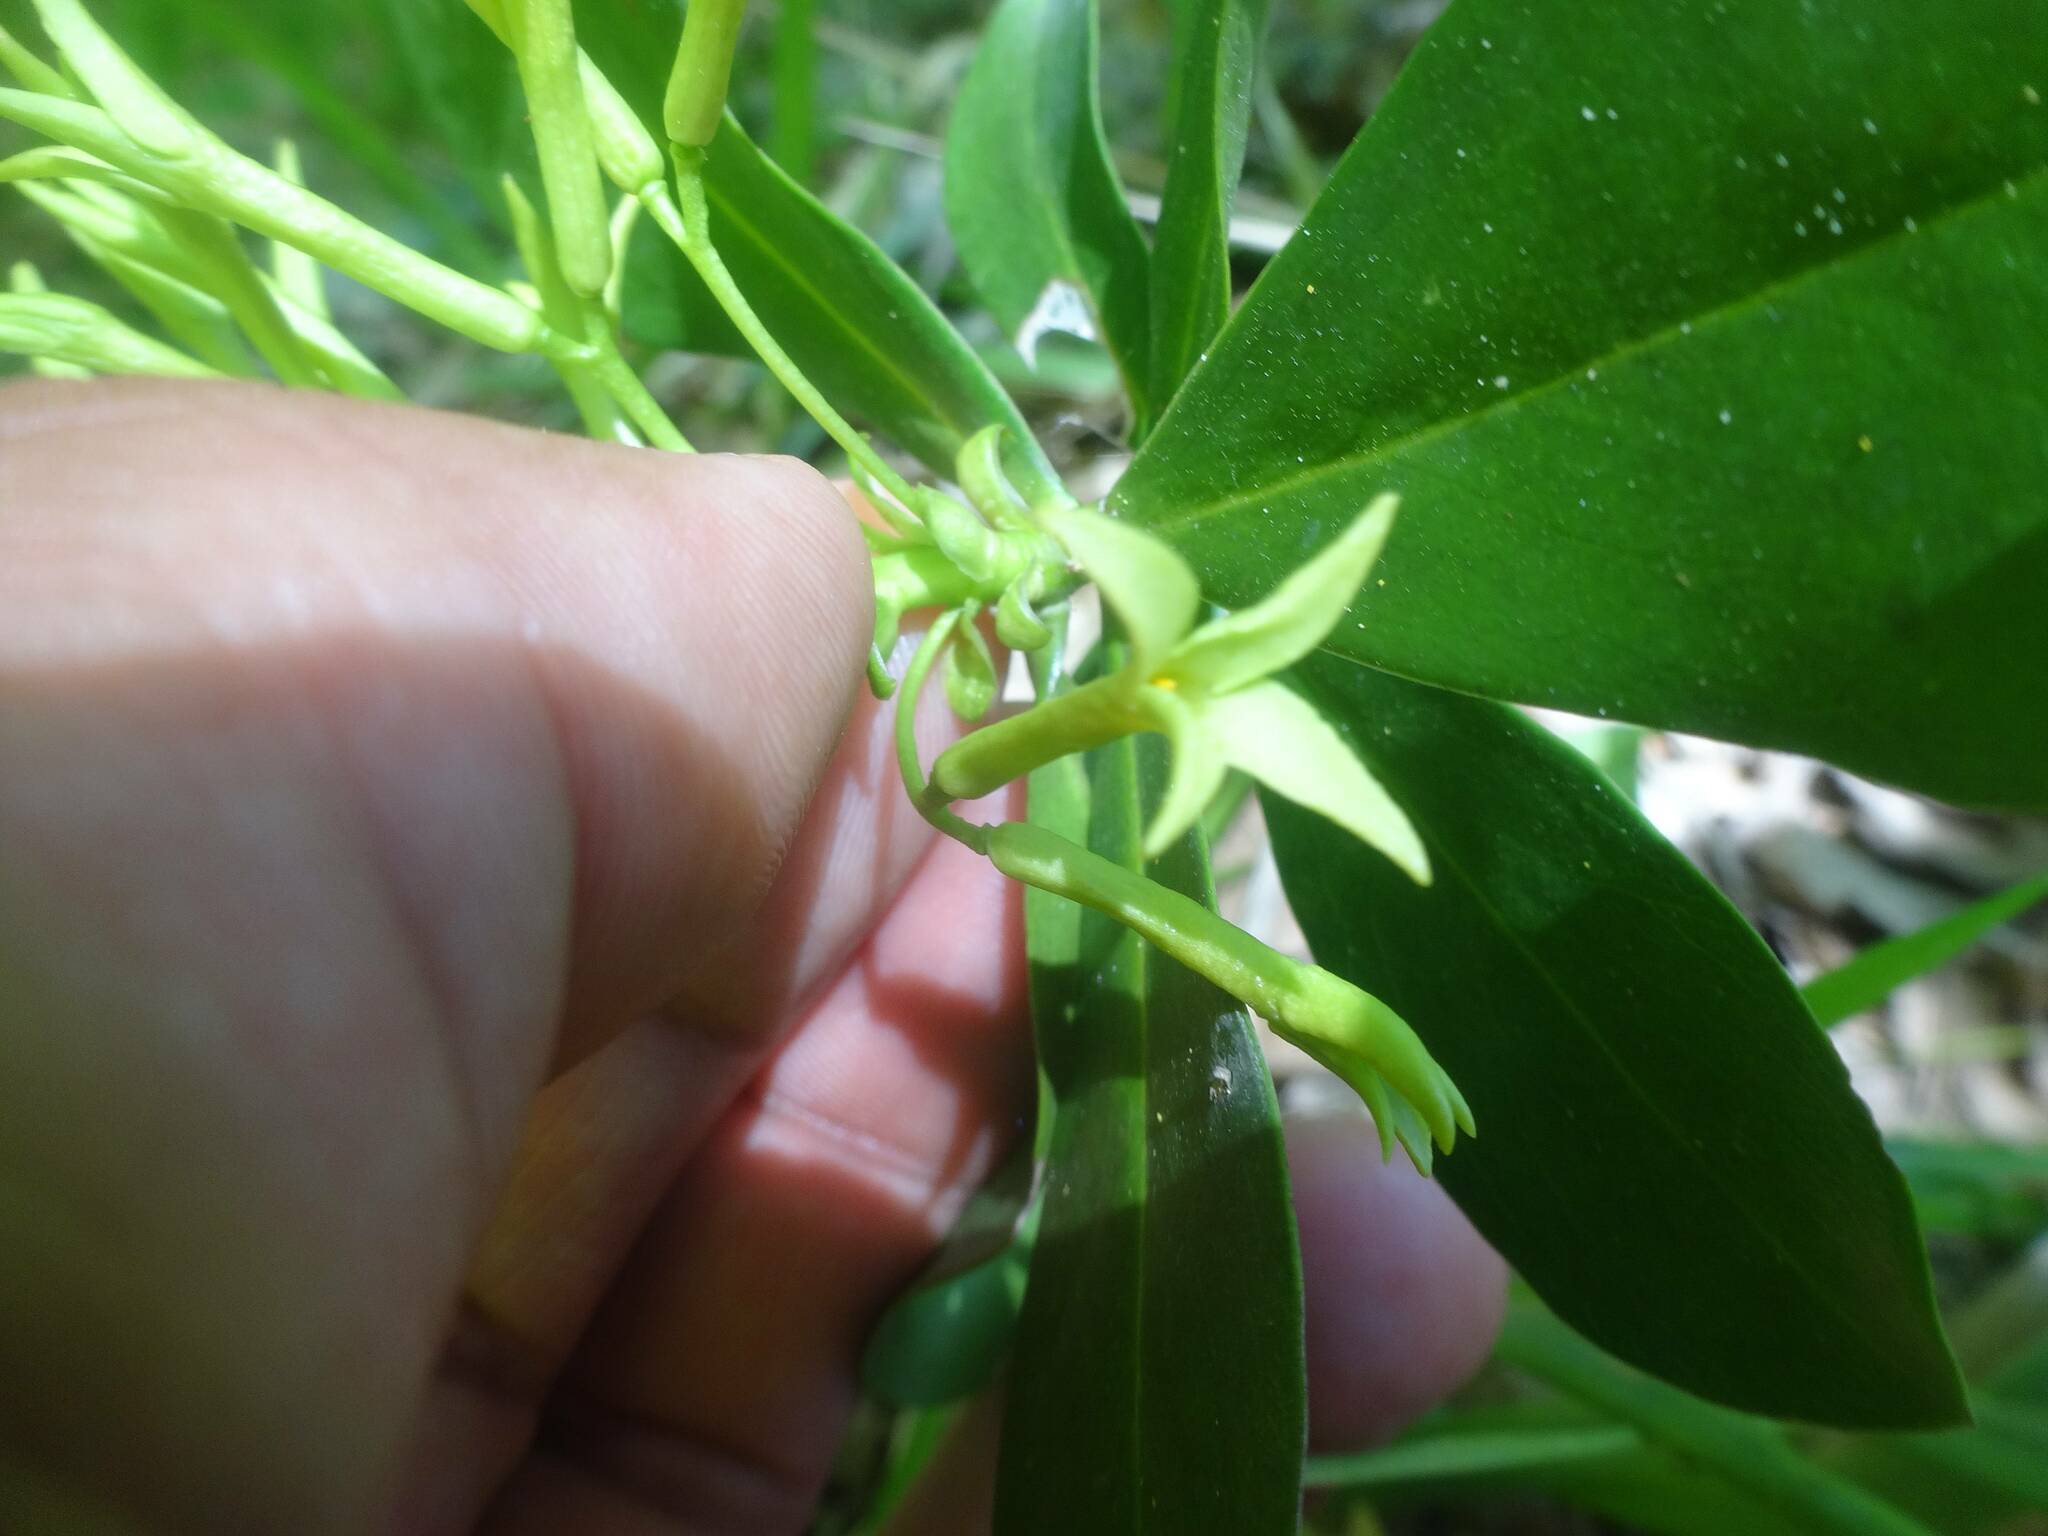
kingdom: Plantae
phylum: Tracheophyta
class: Magnoliopsida
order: Malvales
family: Thymelaeaceae
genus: Daphne
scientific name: Daphne pontica
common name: Twin-flower daphne
